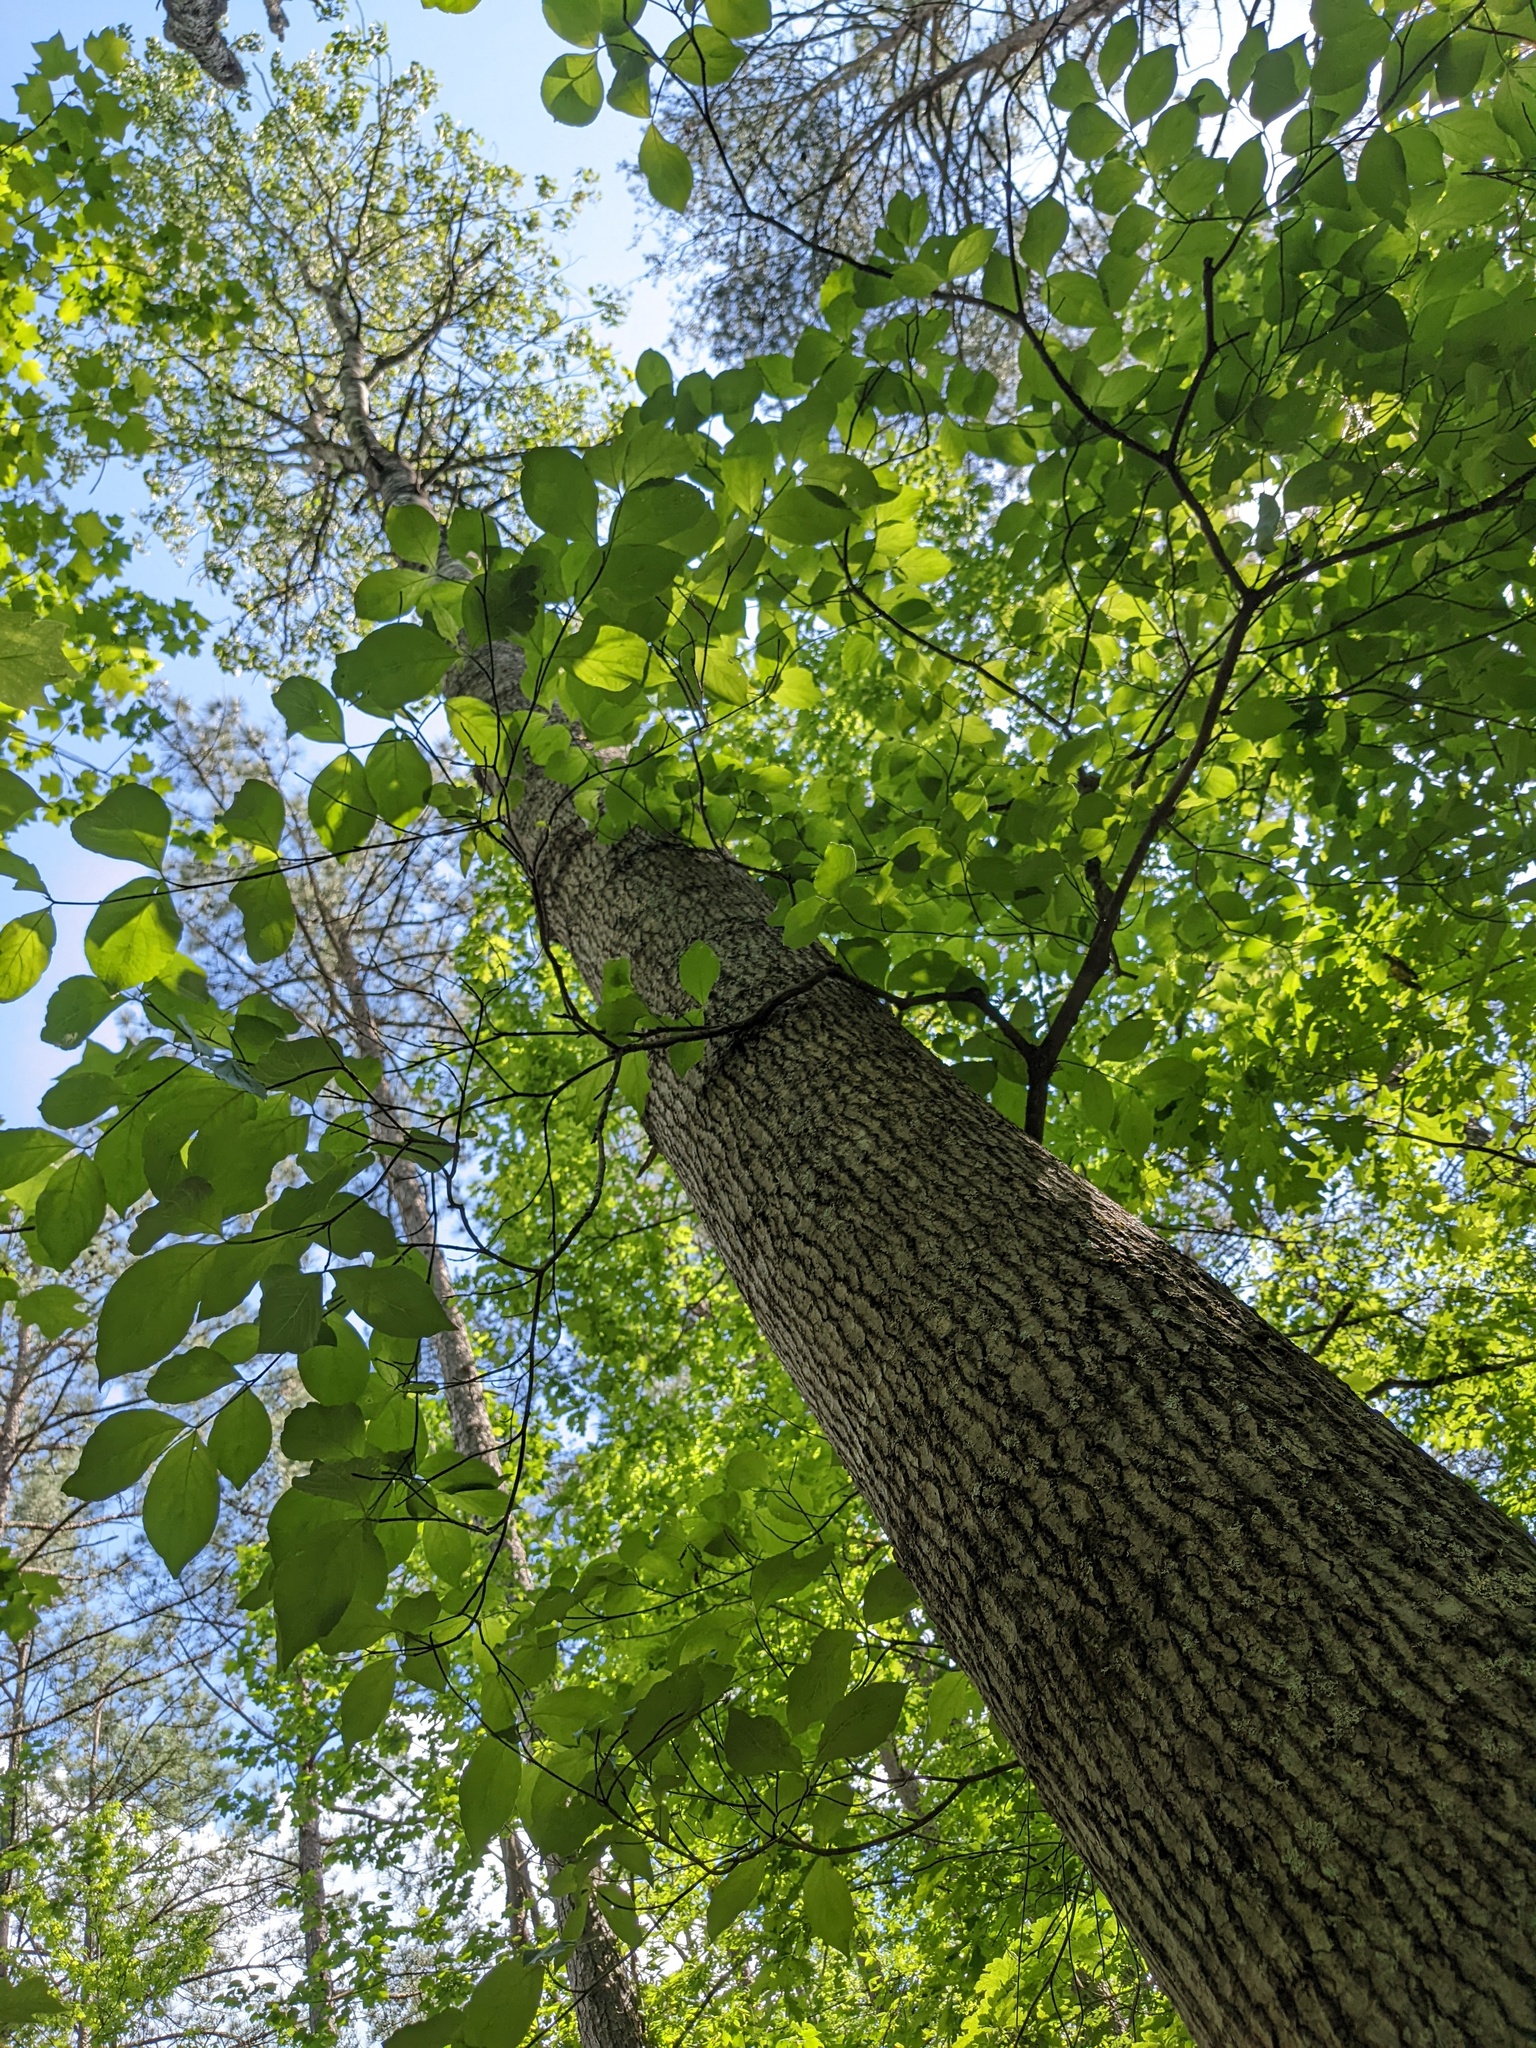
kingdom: Plantae
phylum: Tracheophyta
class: Magnoliopsida
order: Malpighiales
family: Salicaceae
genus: Populus
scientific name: Populus grandidentata
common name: Bigtooth aspen
